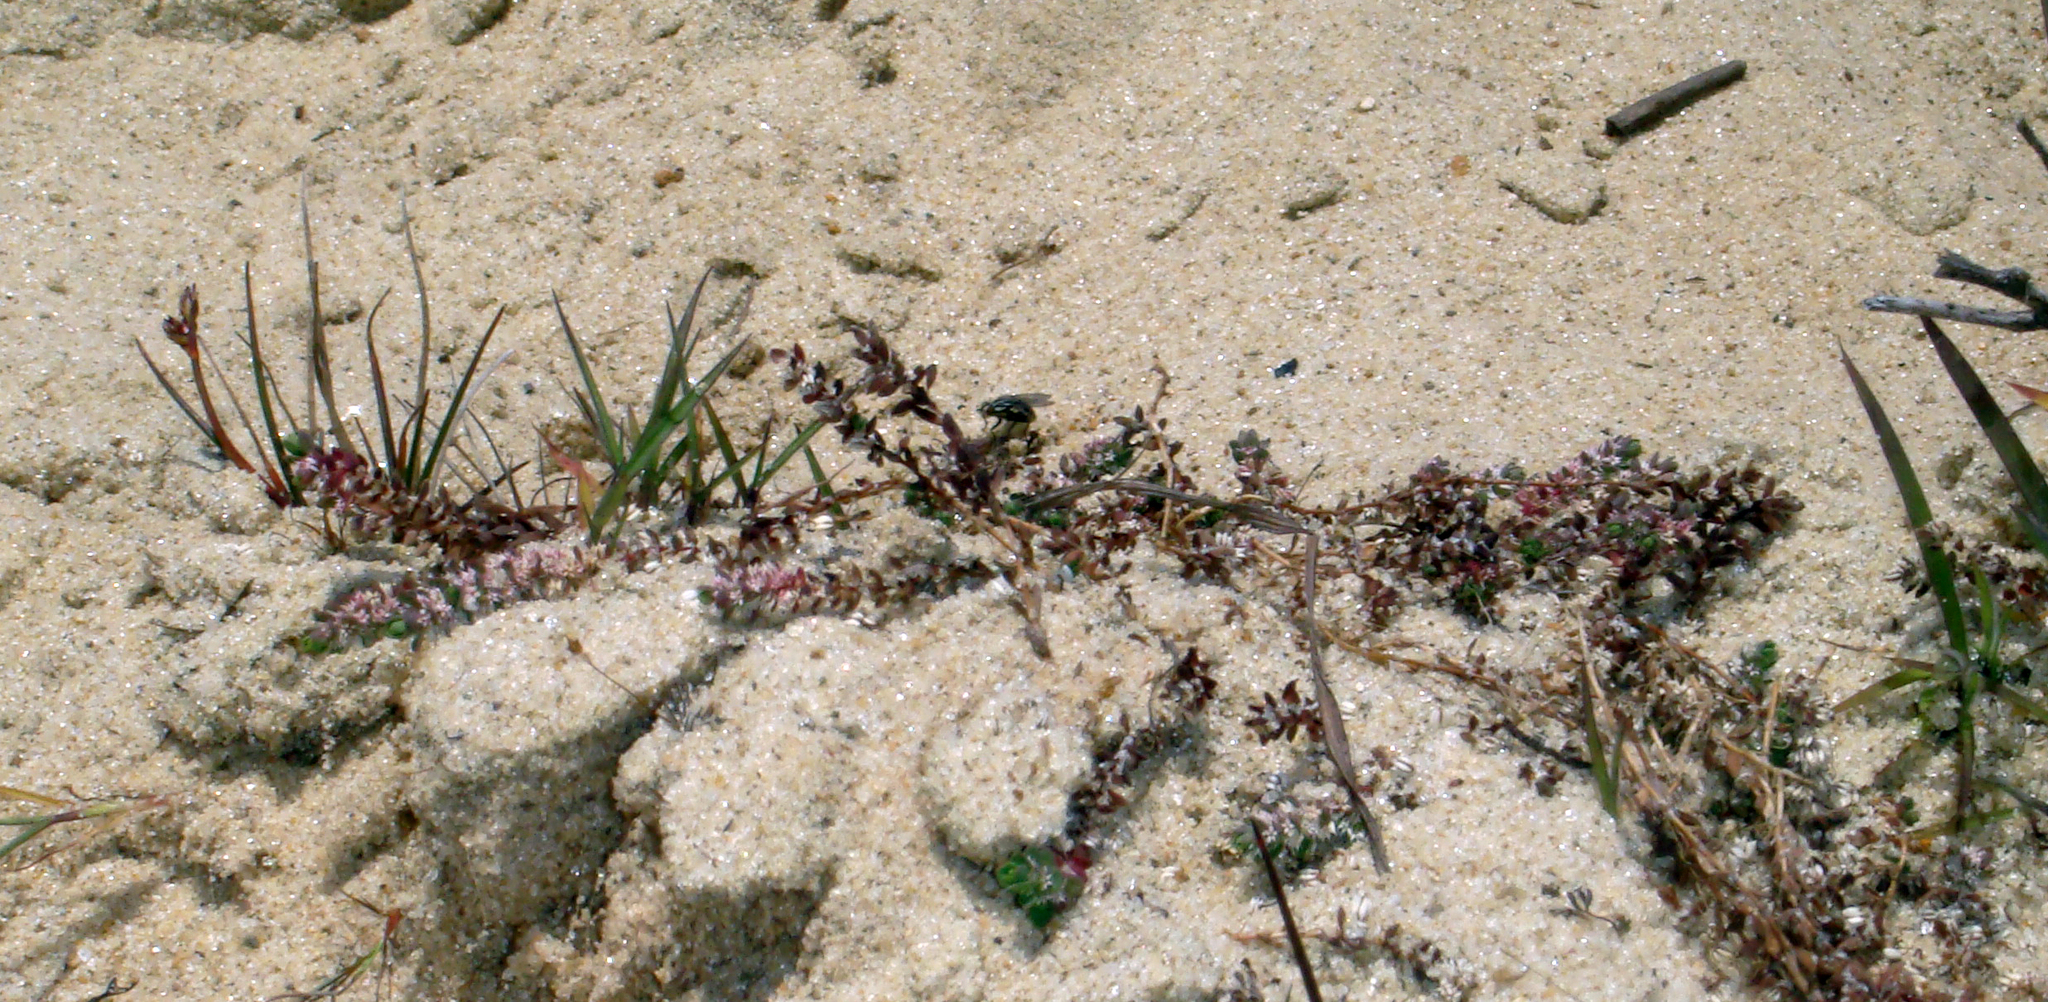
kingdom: Plantae
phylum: Tracheophyta
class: Magnoliopsida
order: Caryophyllales
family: Caryophyllaceae
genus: Illecebrum
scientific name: Illecebrum verticillatum
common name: Coral necklace
